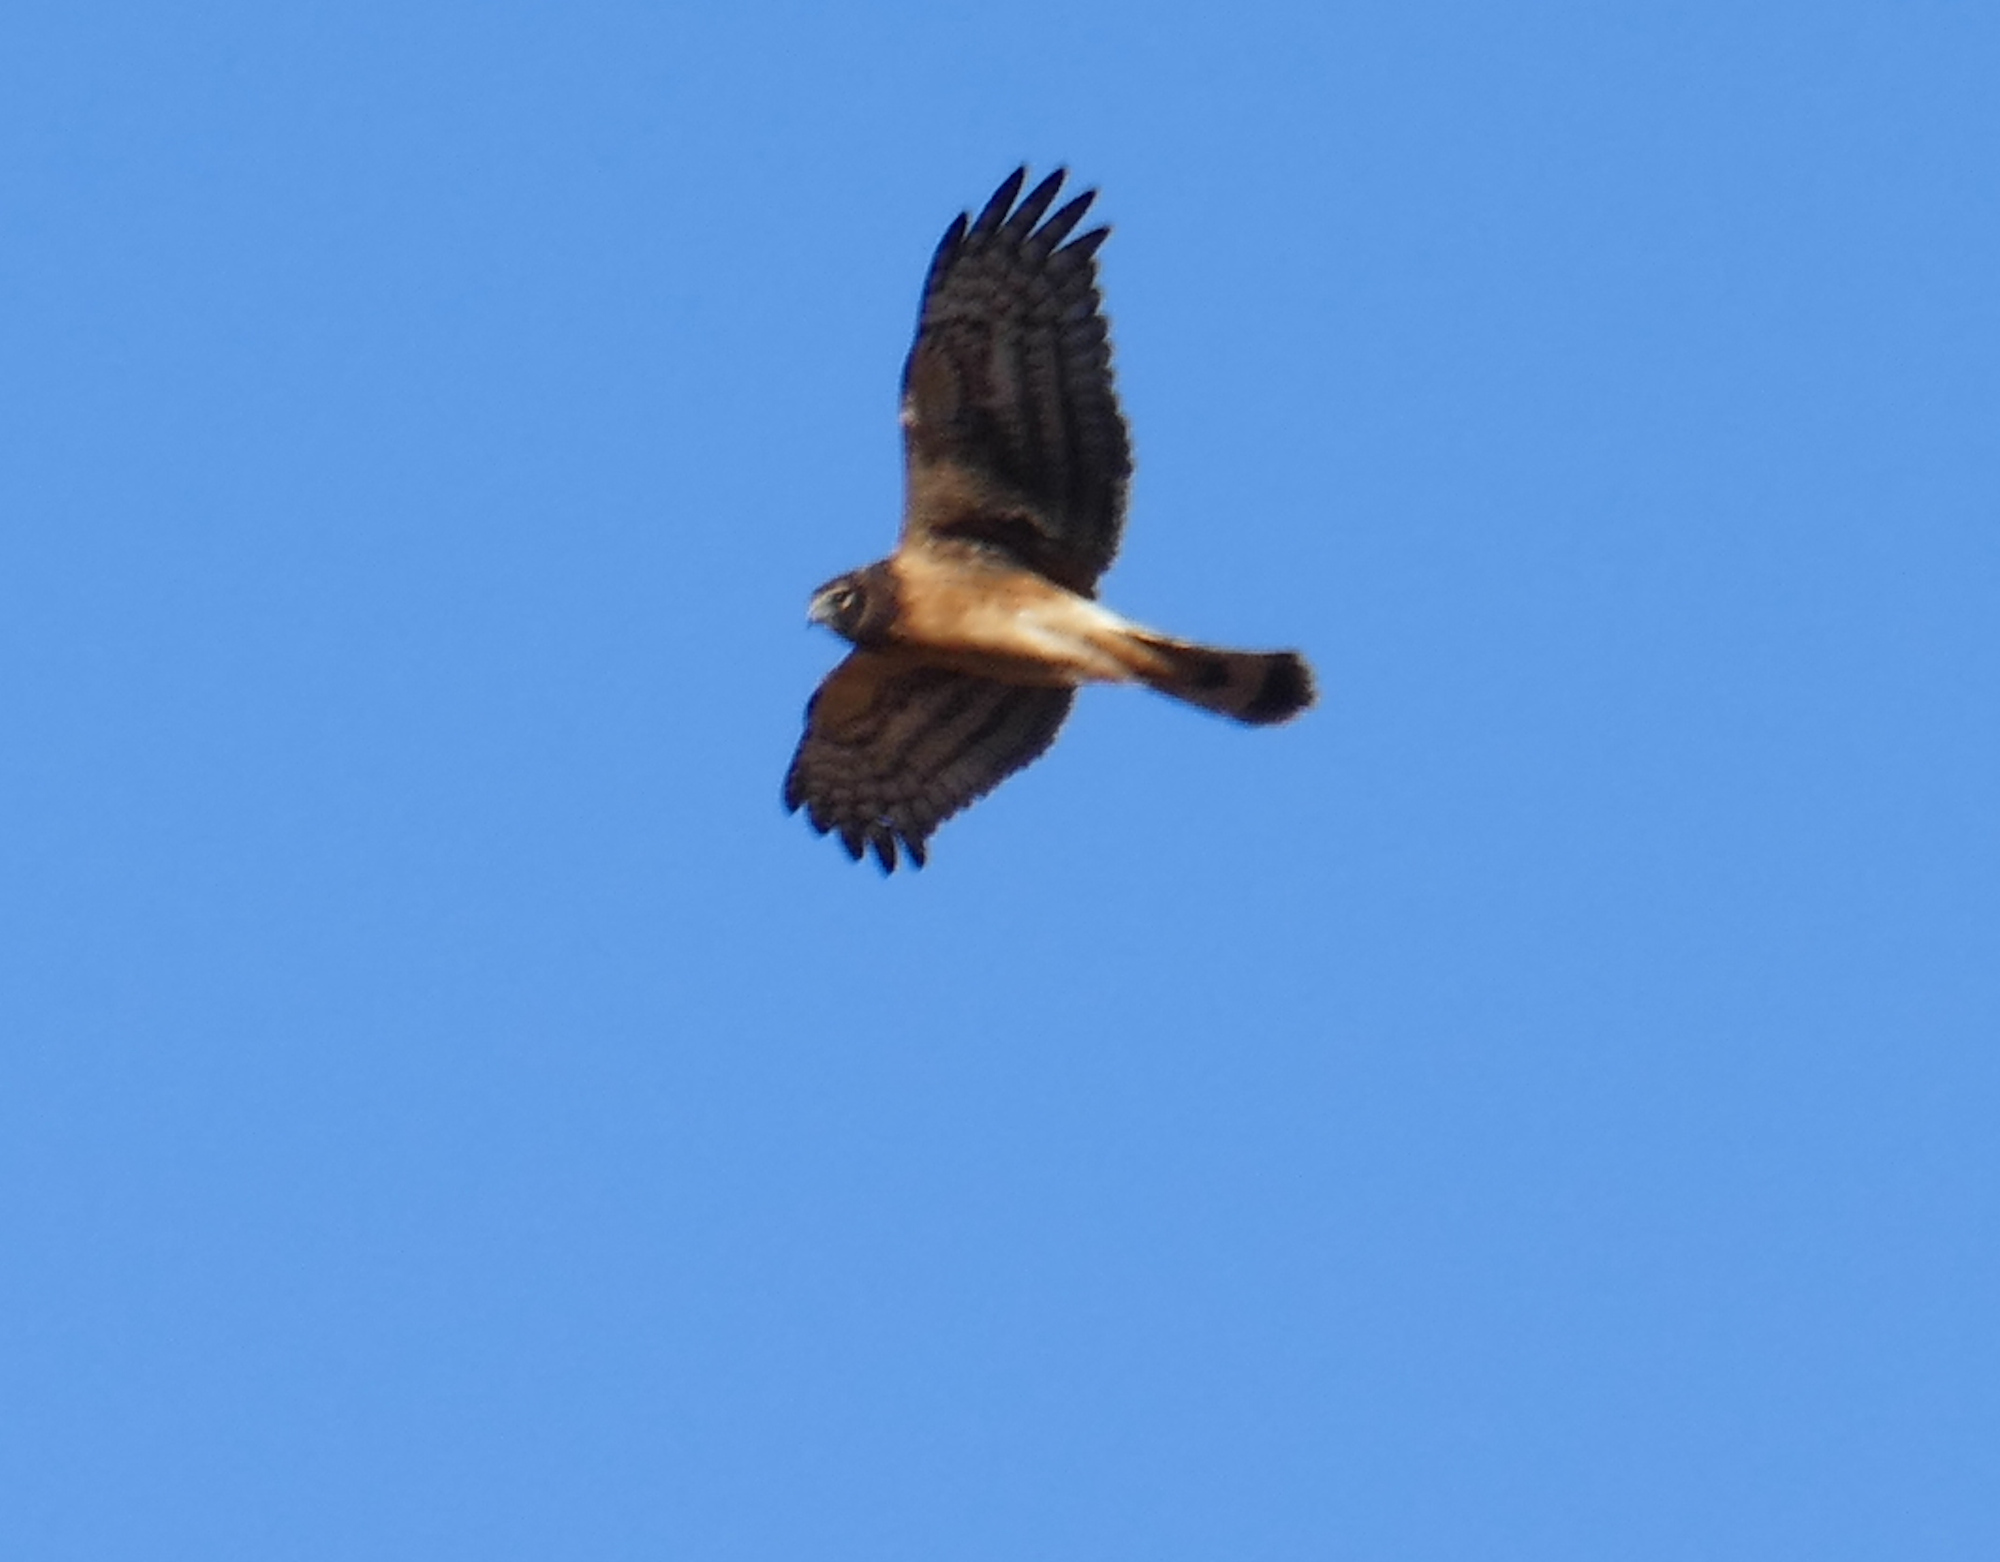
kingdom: Animalia
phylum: Chordata
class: Aves
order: Accipitriformes
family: Accipitridae
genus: Circus
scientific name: Circus cyaneus
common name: Hen harrier
